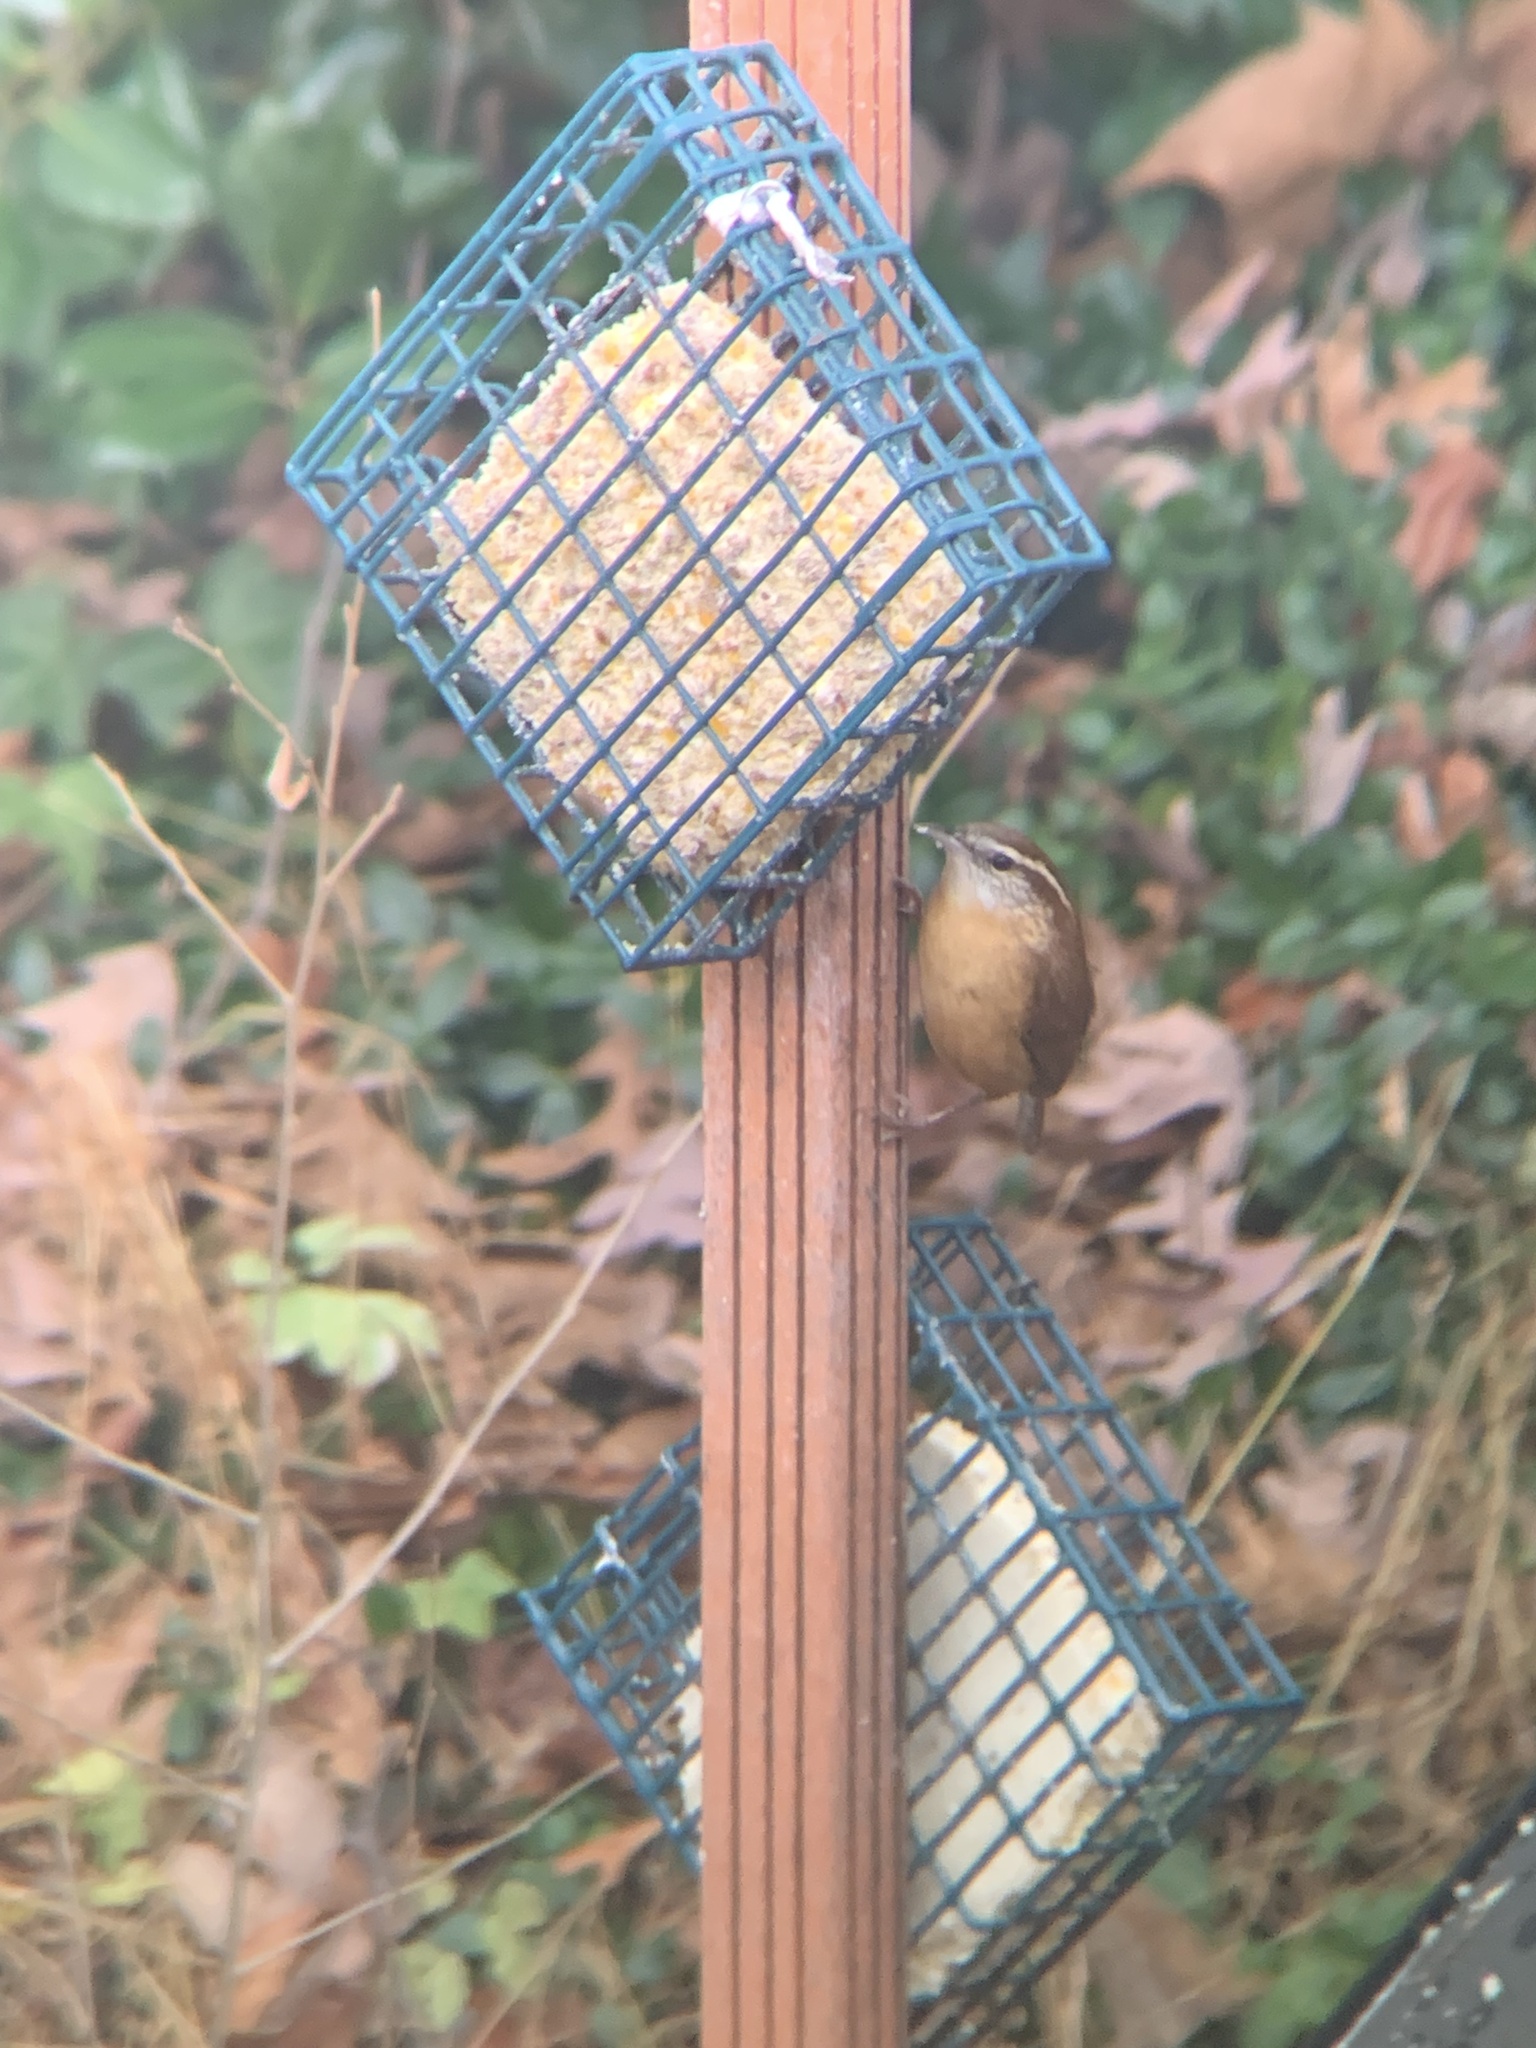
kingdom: Animalia
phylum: Chordata
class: Aves
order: Passeriformes
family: Troglodytidae
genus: Thryothorus
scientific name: Thryothorus ludovicianus
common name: Carolina wren
